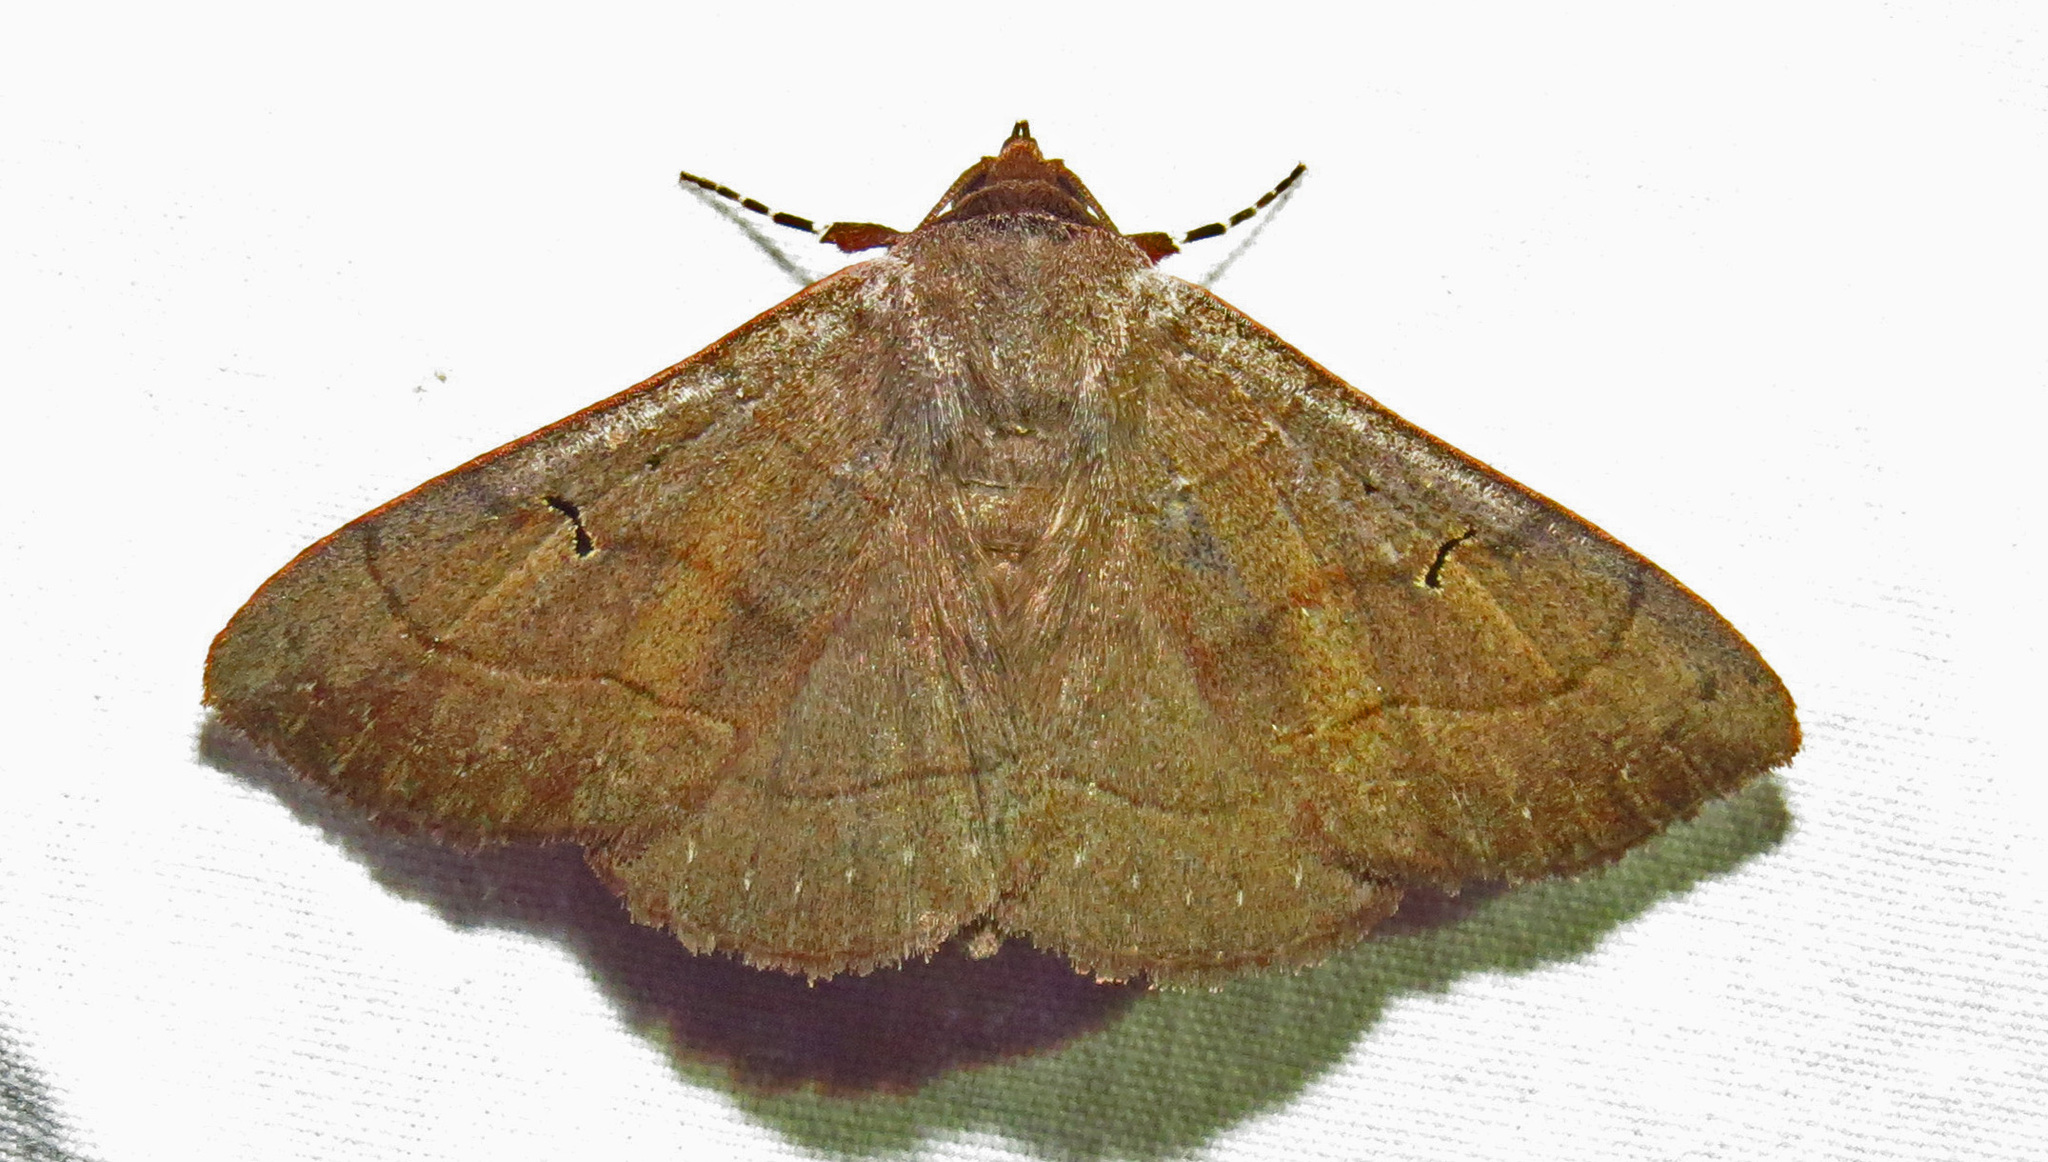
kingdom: Animalia
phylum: Arthropoda
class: Insecta
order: Lepidoptera
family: Erebidae
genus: Panopoda
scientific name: Panopoda carneicosta
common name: Brown panopoda moth
